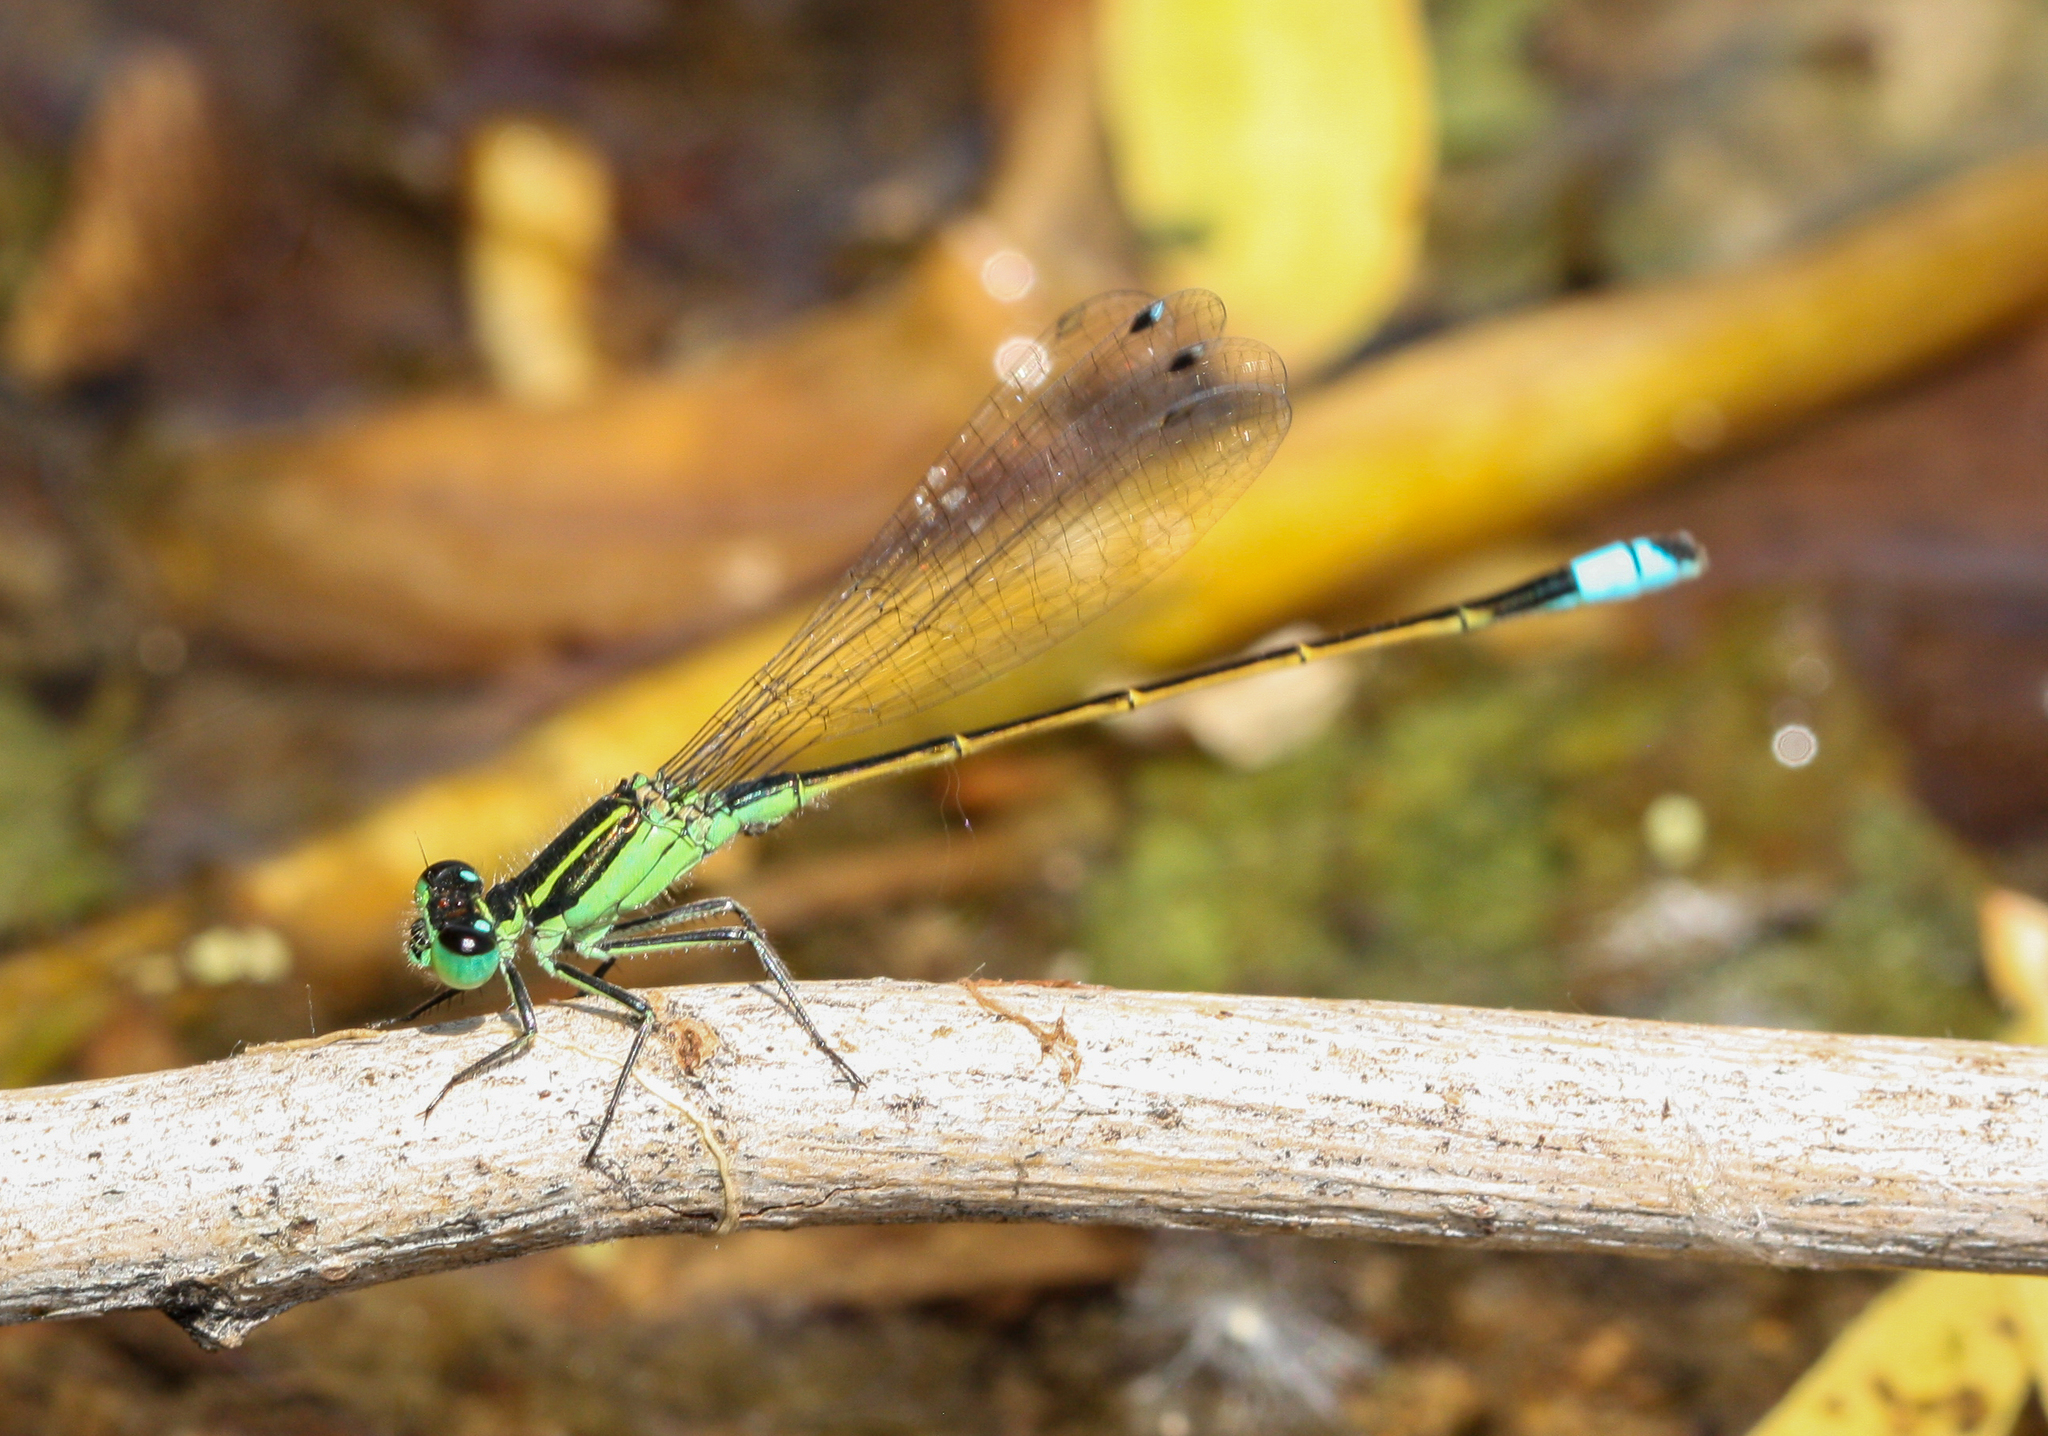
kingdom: Animalia
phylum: Arthropoda
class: Insecta
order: Odonata
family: Coenagrionidae
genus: Ischnura
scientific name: Ischnura ramburii
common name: Rambur's forktail
